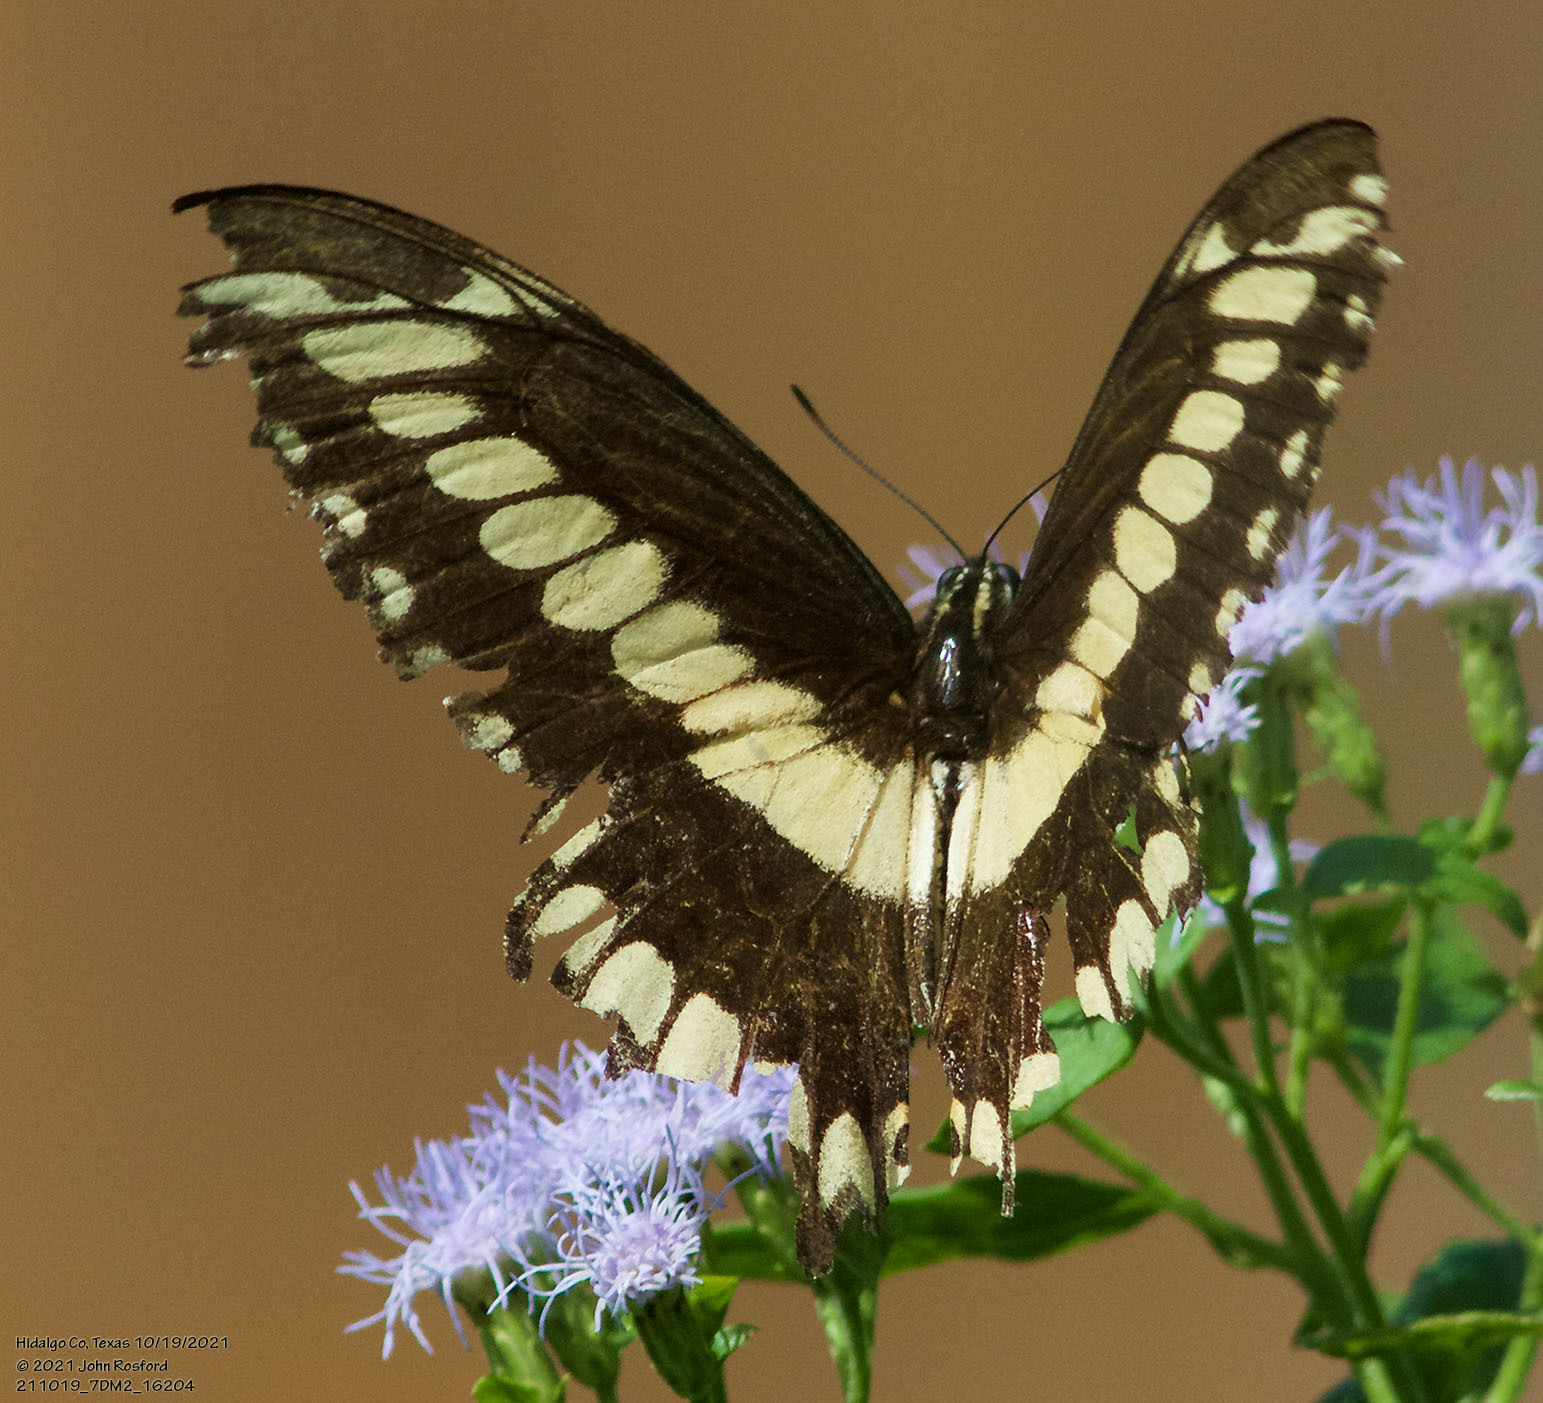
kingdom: Animalia
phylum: Arthropoda
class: Insecta
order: Lepidoptera
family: Papilionidae
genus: Papilio
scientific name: Papilio ornythion
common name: Ornythion swallowtail
